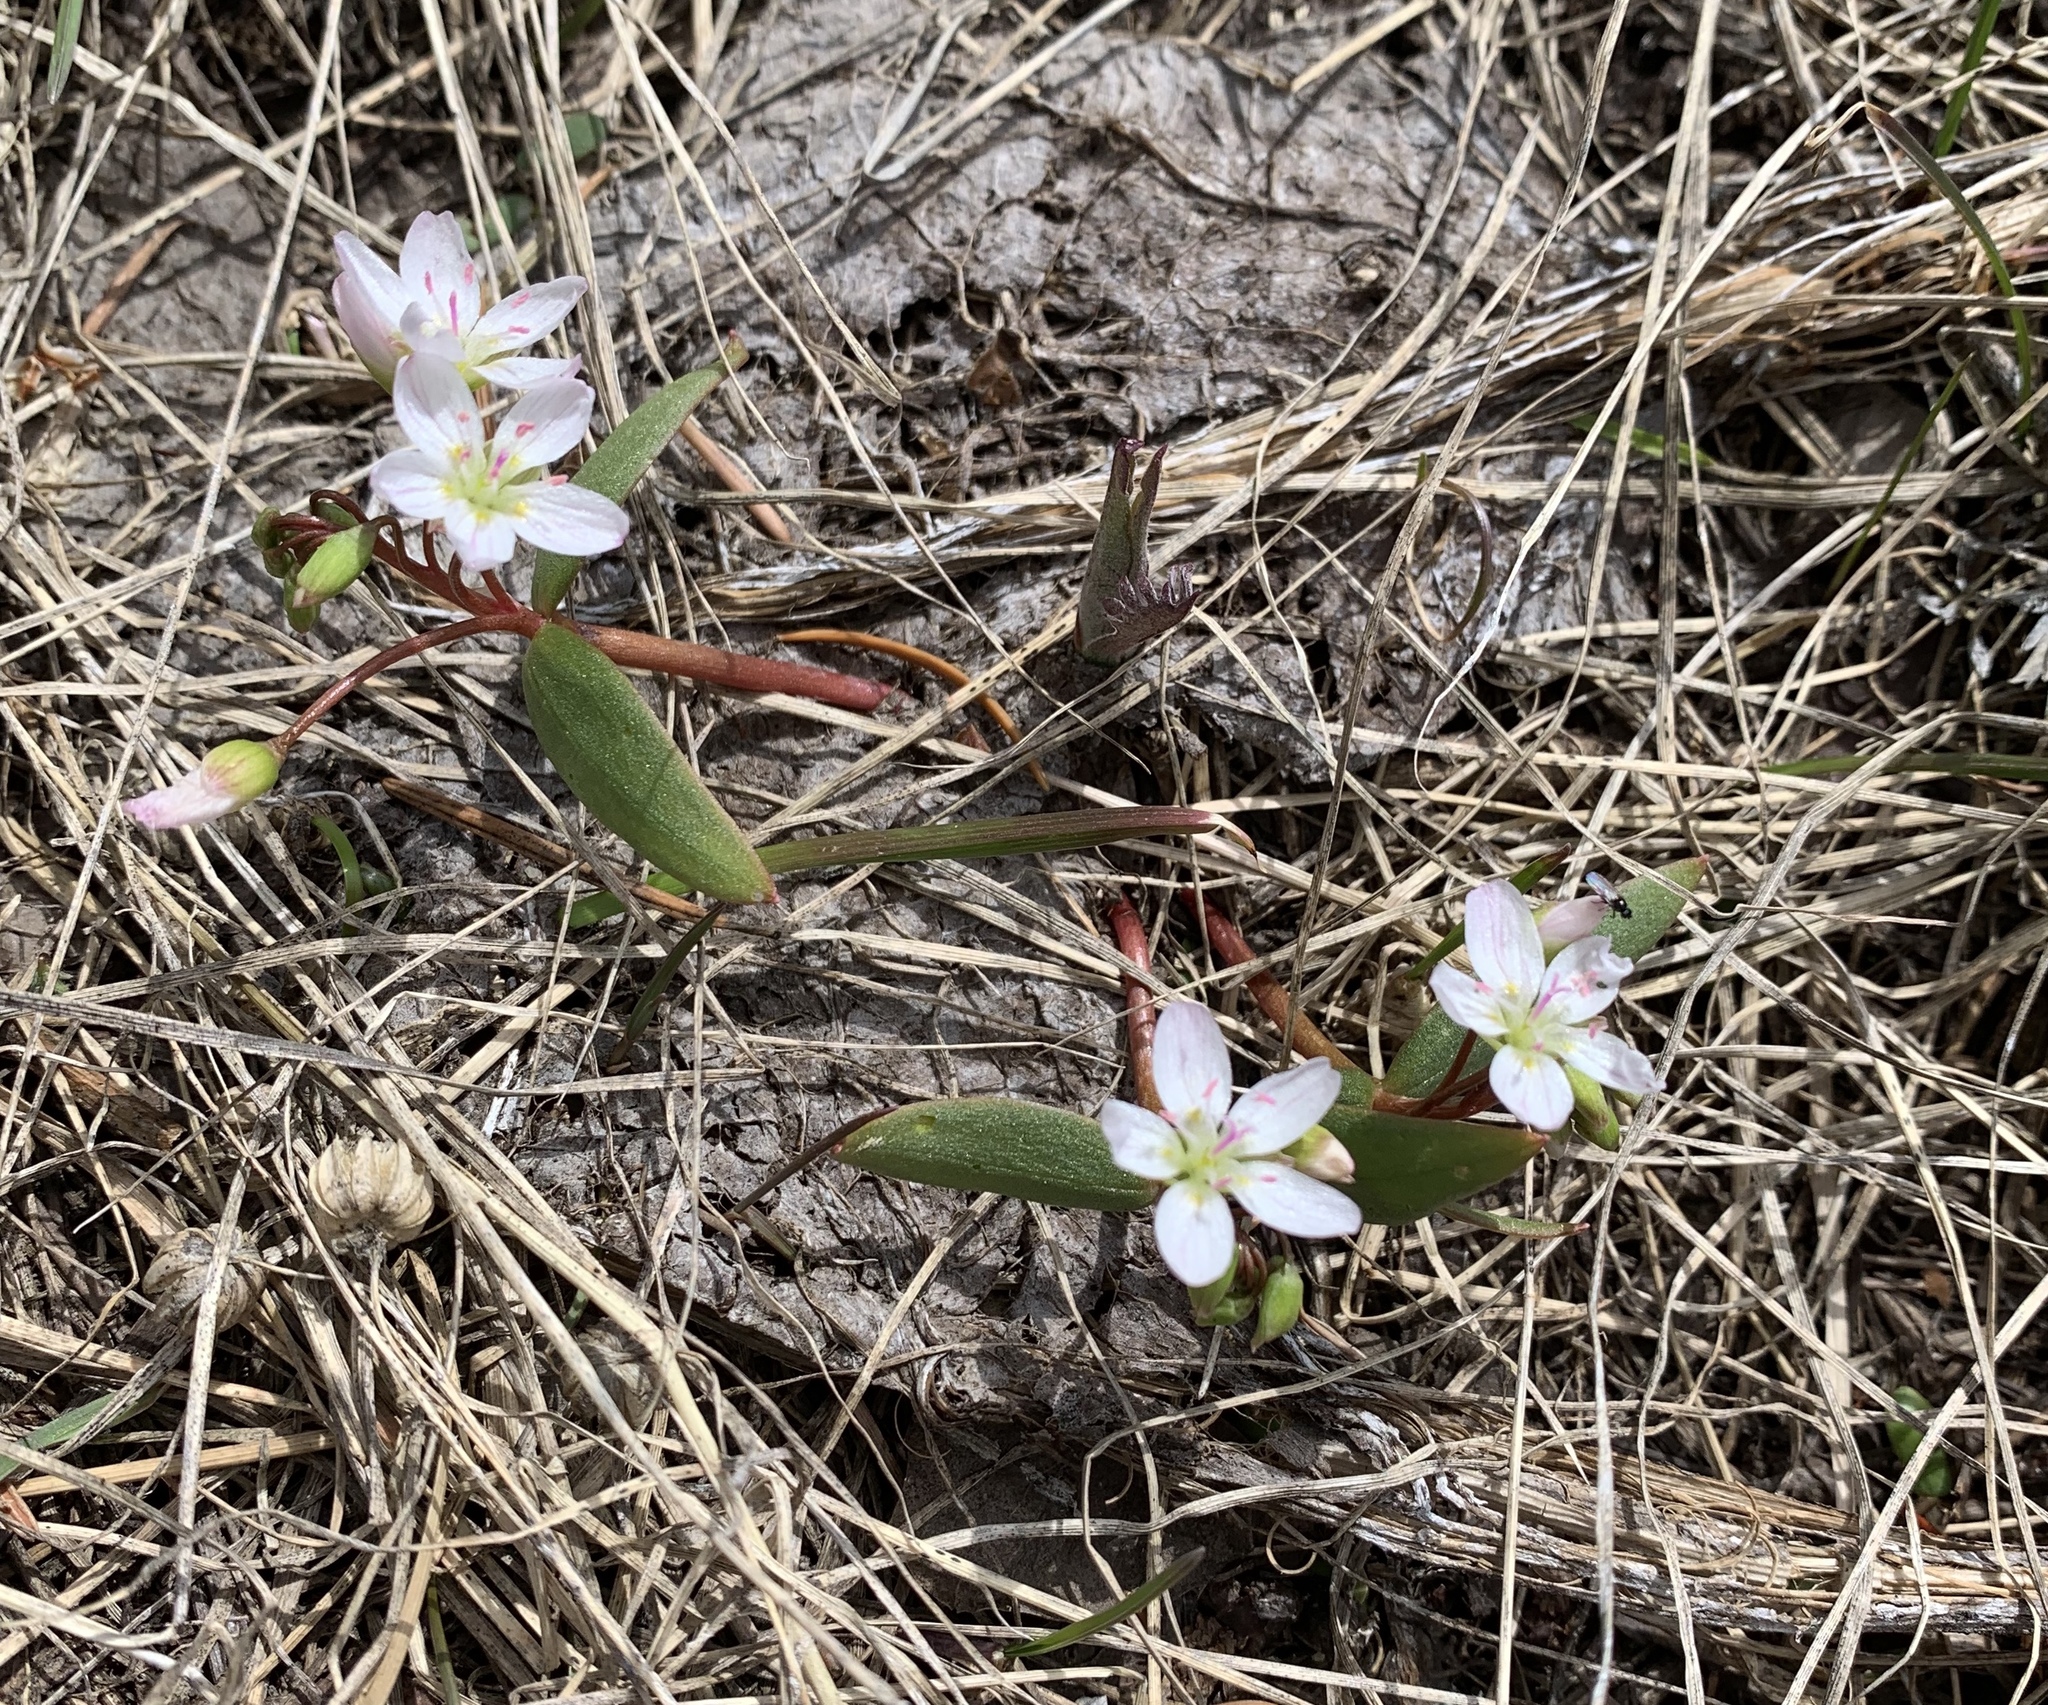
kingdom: Plantae
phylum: Tracheophyta
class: Magnoliopsida
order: Caryophyllales
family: Montiaceae
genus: Claytonia
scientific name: Claytonia lanceolata
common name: Western spring-beauty
